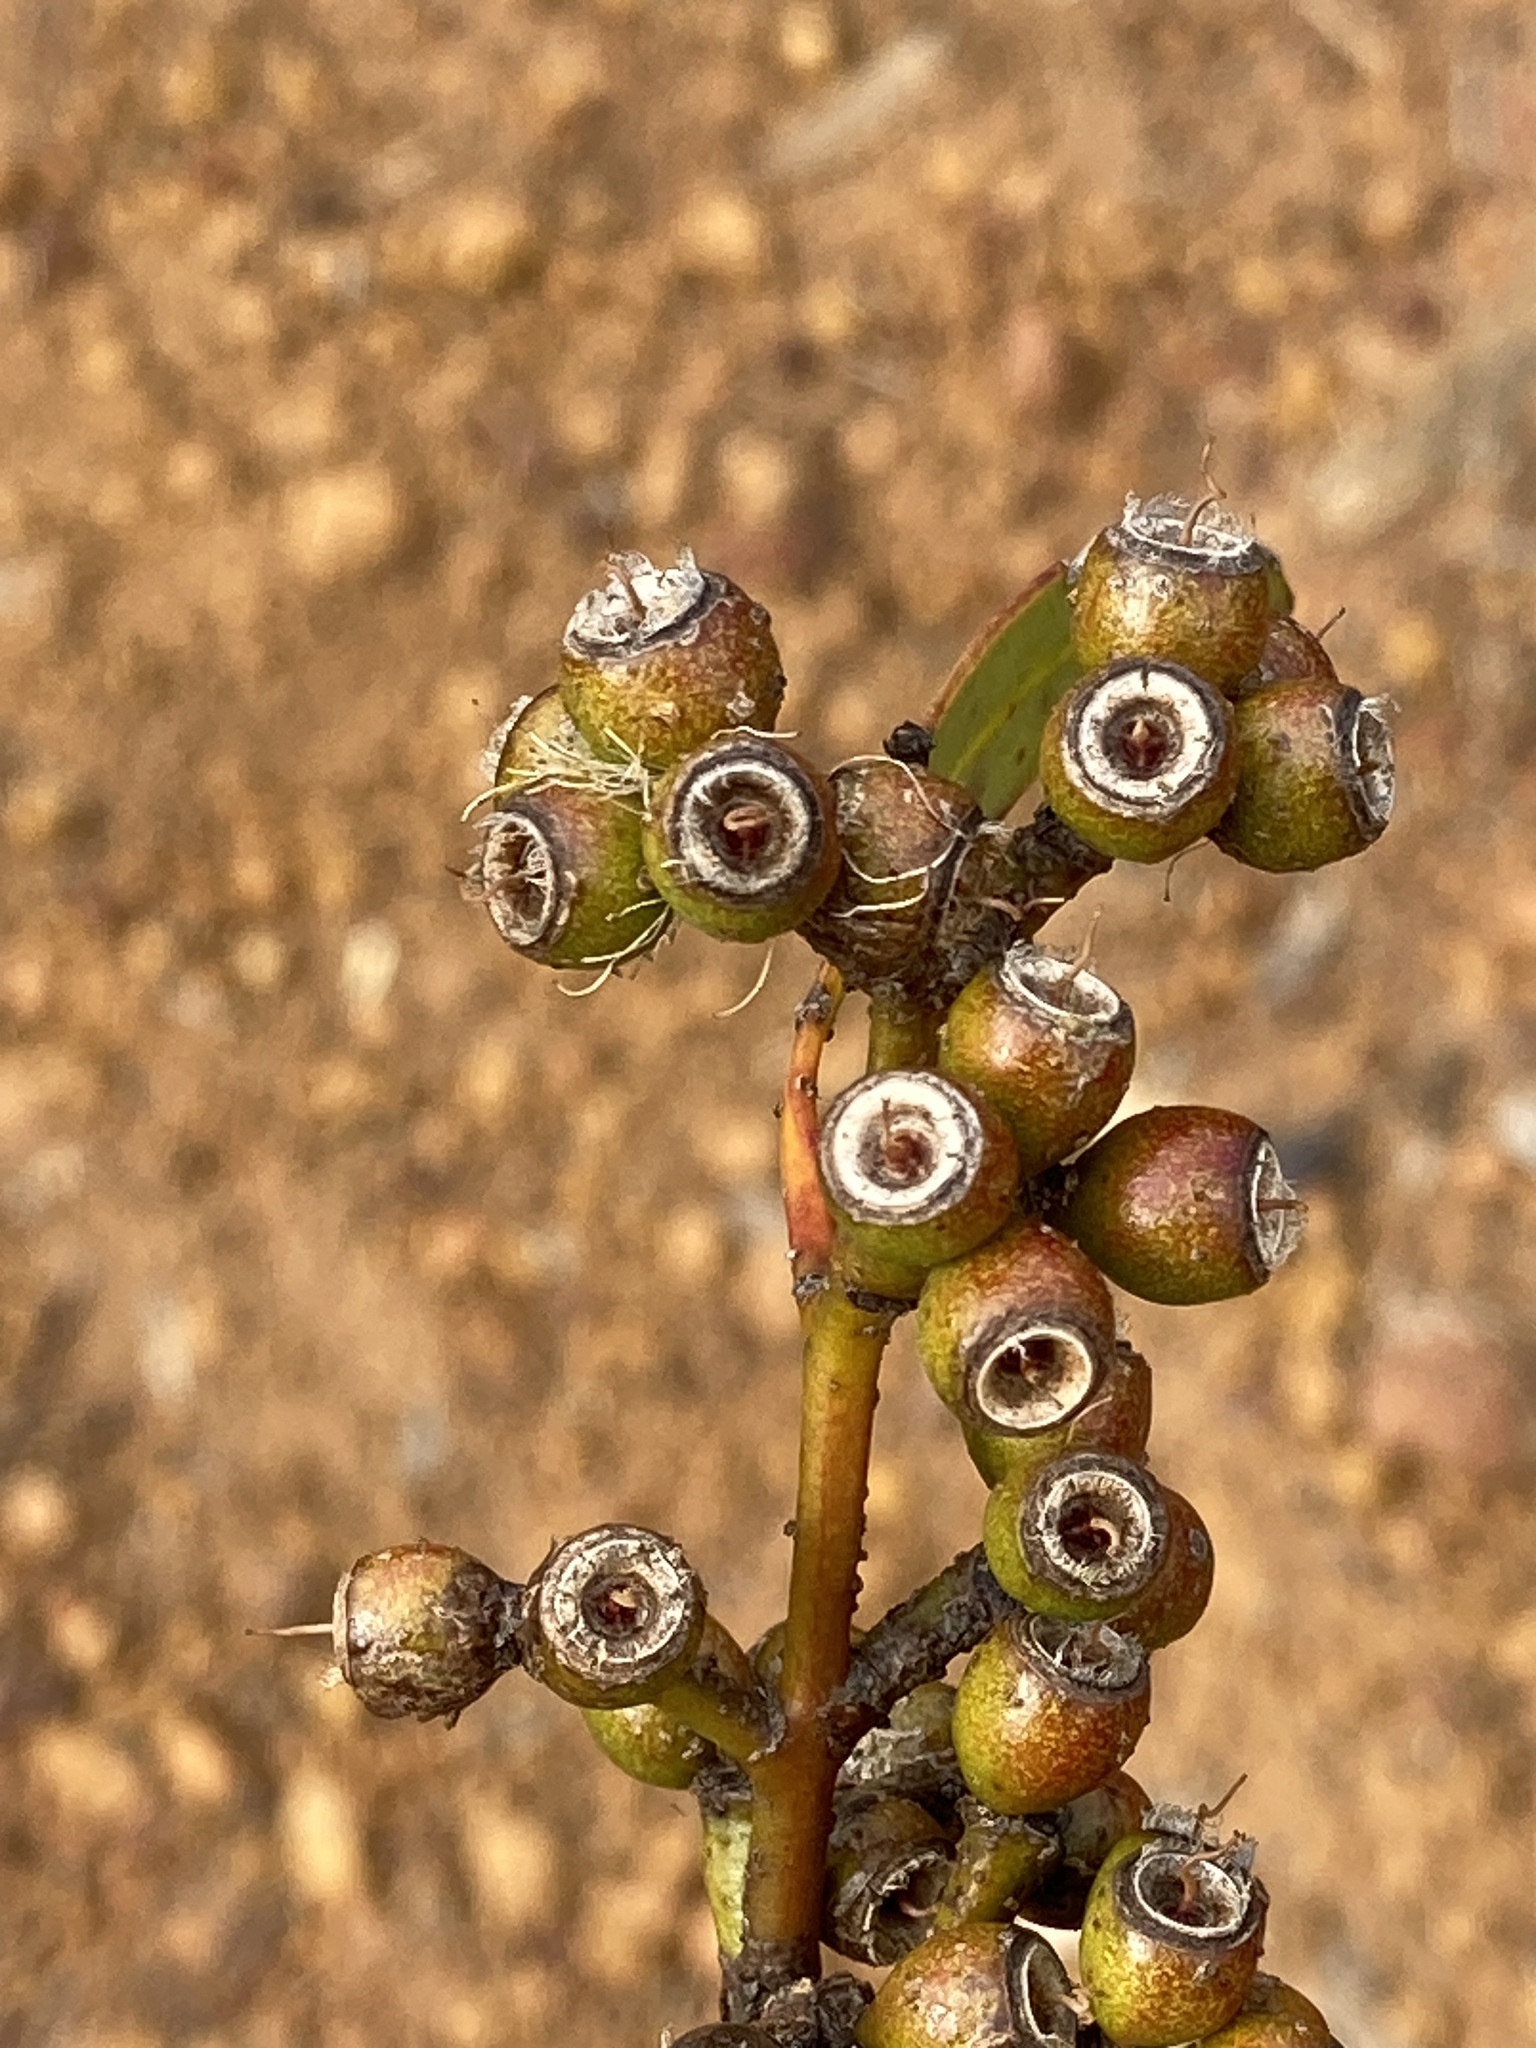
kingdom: Plantae
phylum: Tracheophyta
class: Magnoliopsida
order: Myrtales
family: Myrtaceae
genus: Eucalyptus
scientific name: Eucalyptus uncinata
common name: Hooked-leaved mallee
